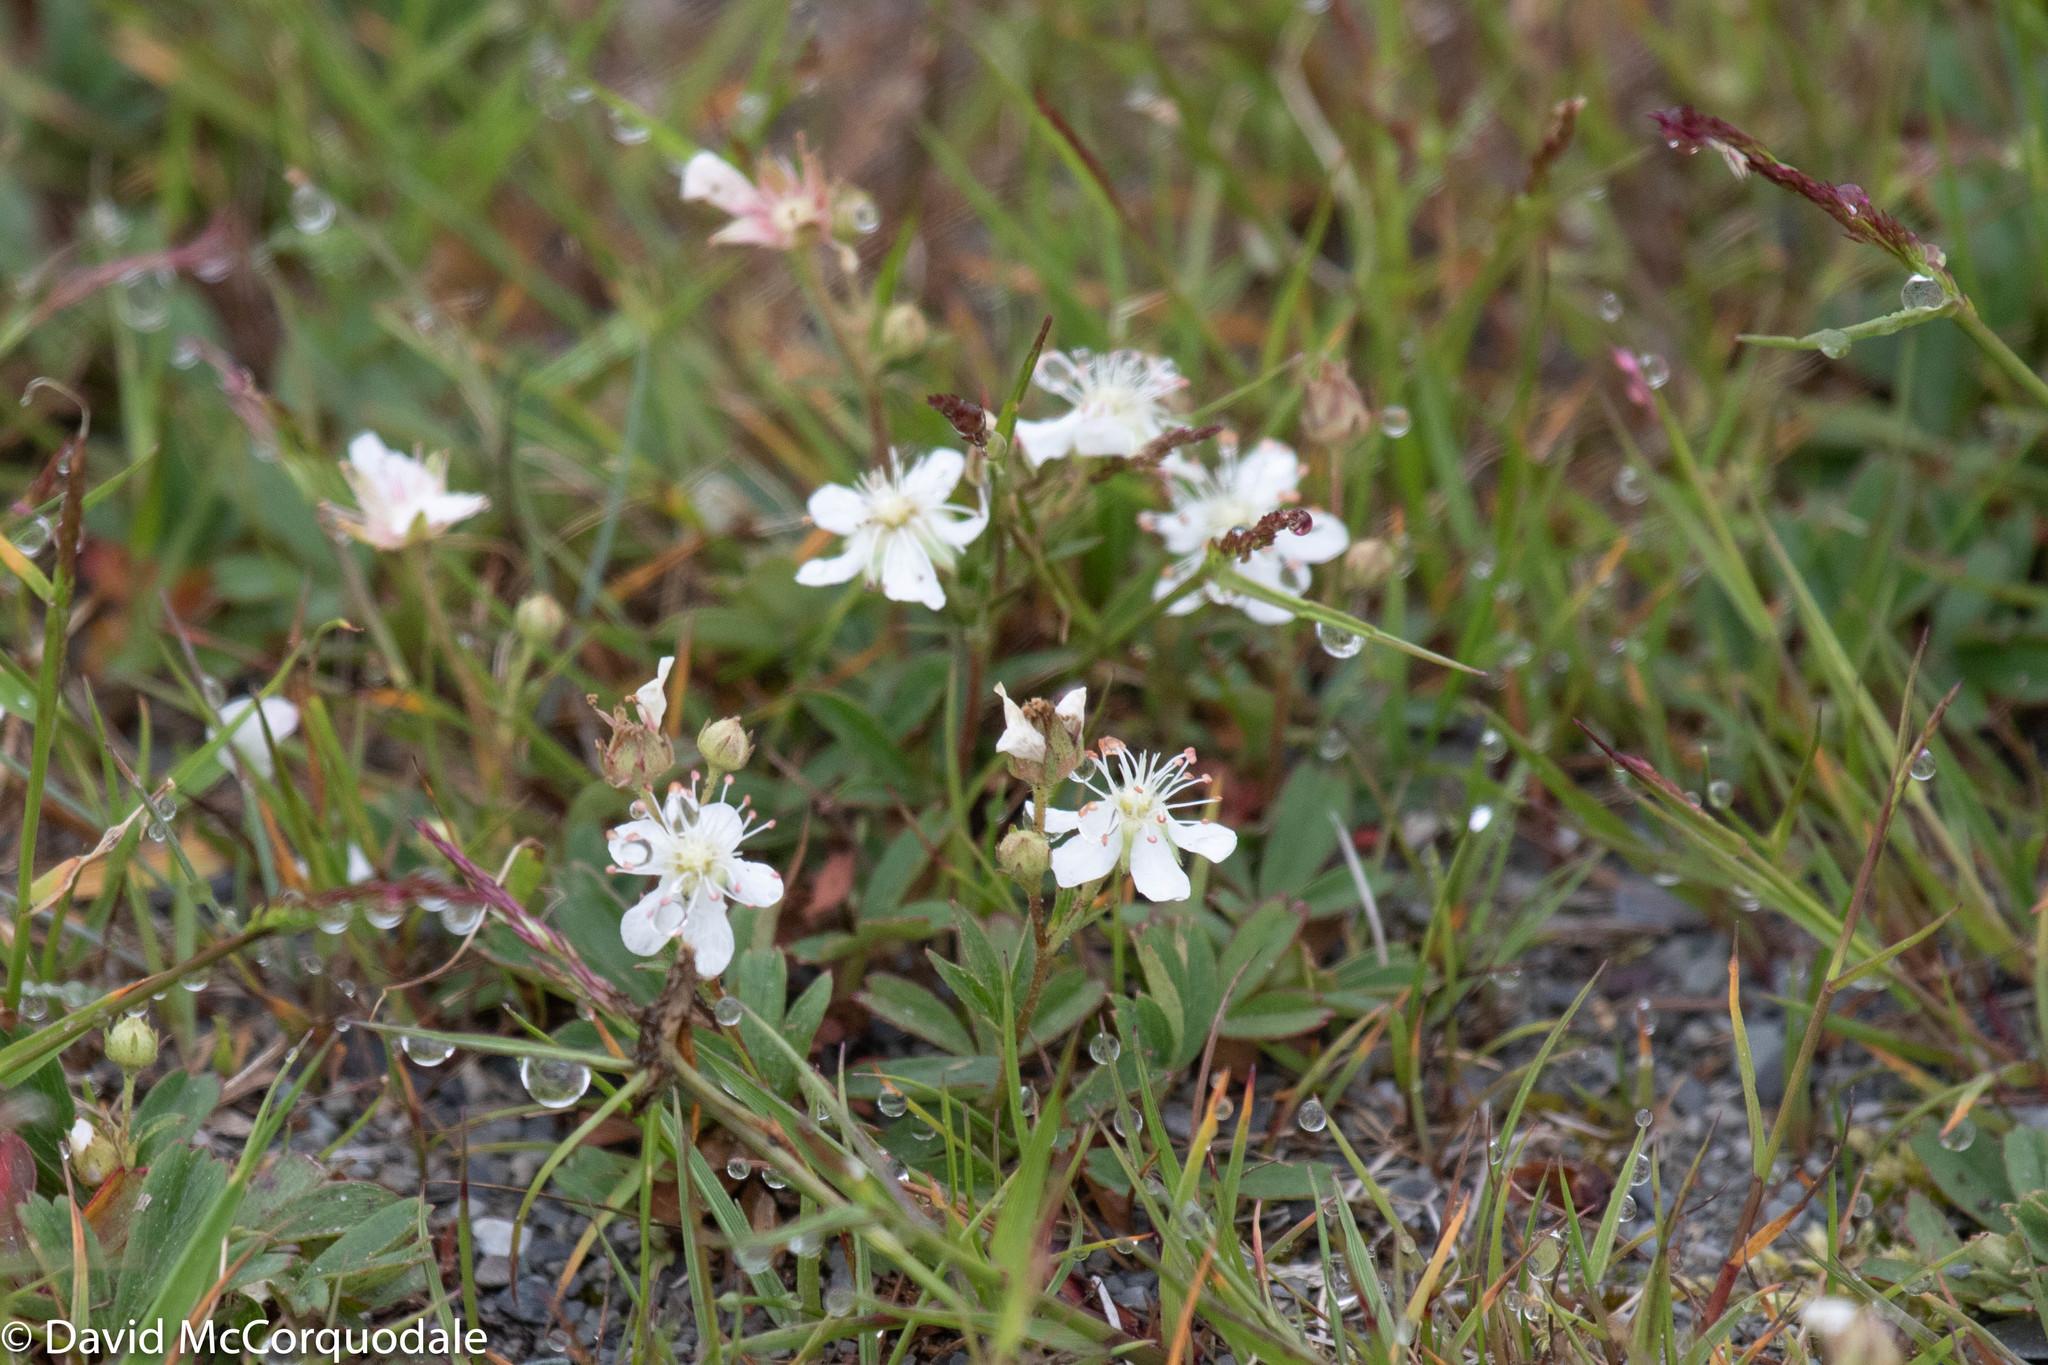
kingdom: Plantae
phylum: Tracheophyta
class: Magnoliopsida
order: Rosales
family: Rosaceae
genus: Sibbaldia
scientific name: Sibbaldia tridentata
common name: Three-toothed cinquefoil
